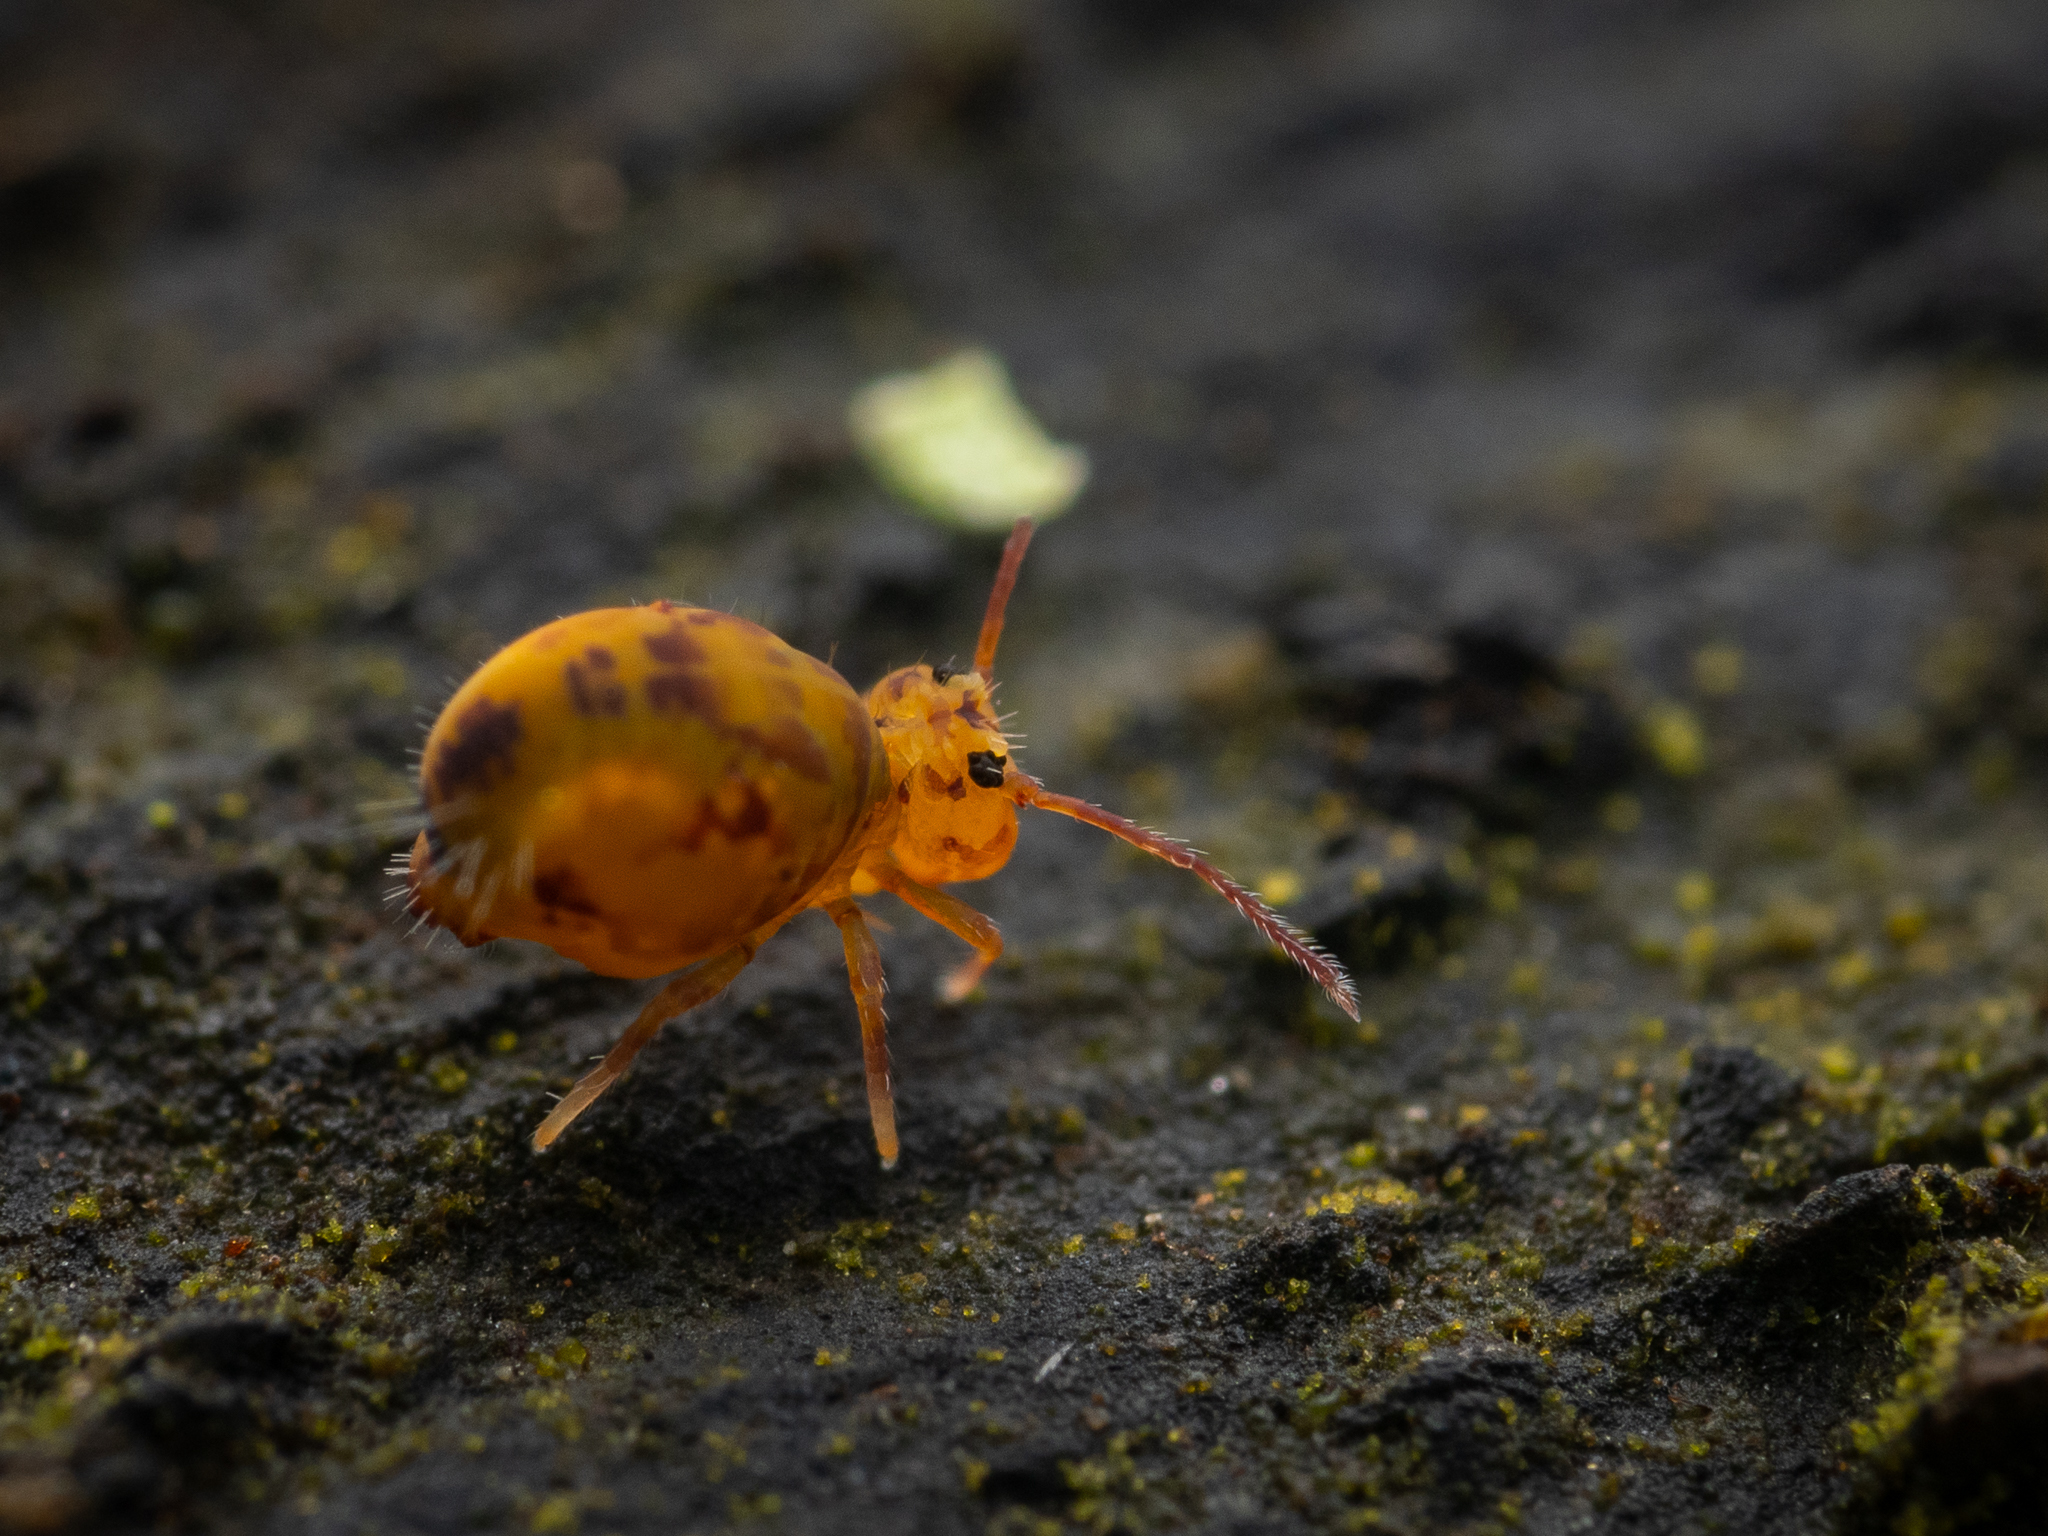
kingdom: Animalia
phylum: Arthropoda
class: Collembola
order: Symphypleona
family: Dicyrtomidae
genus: Dicyrtomina
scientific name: Dicyrtomina ornata
